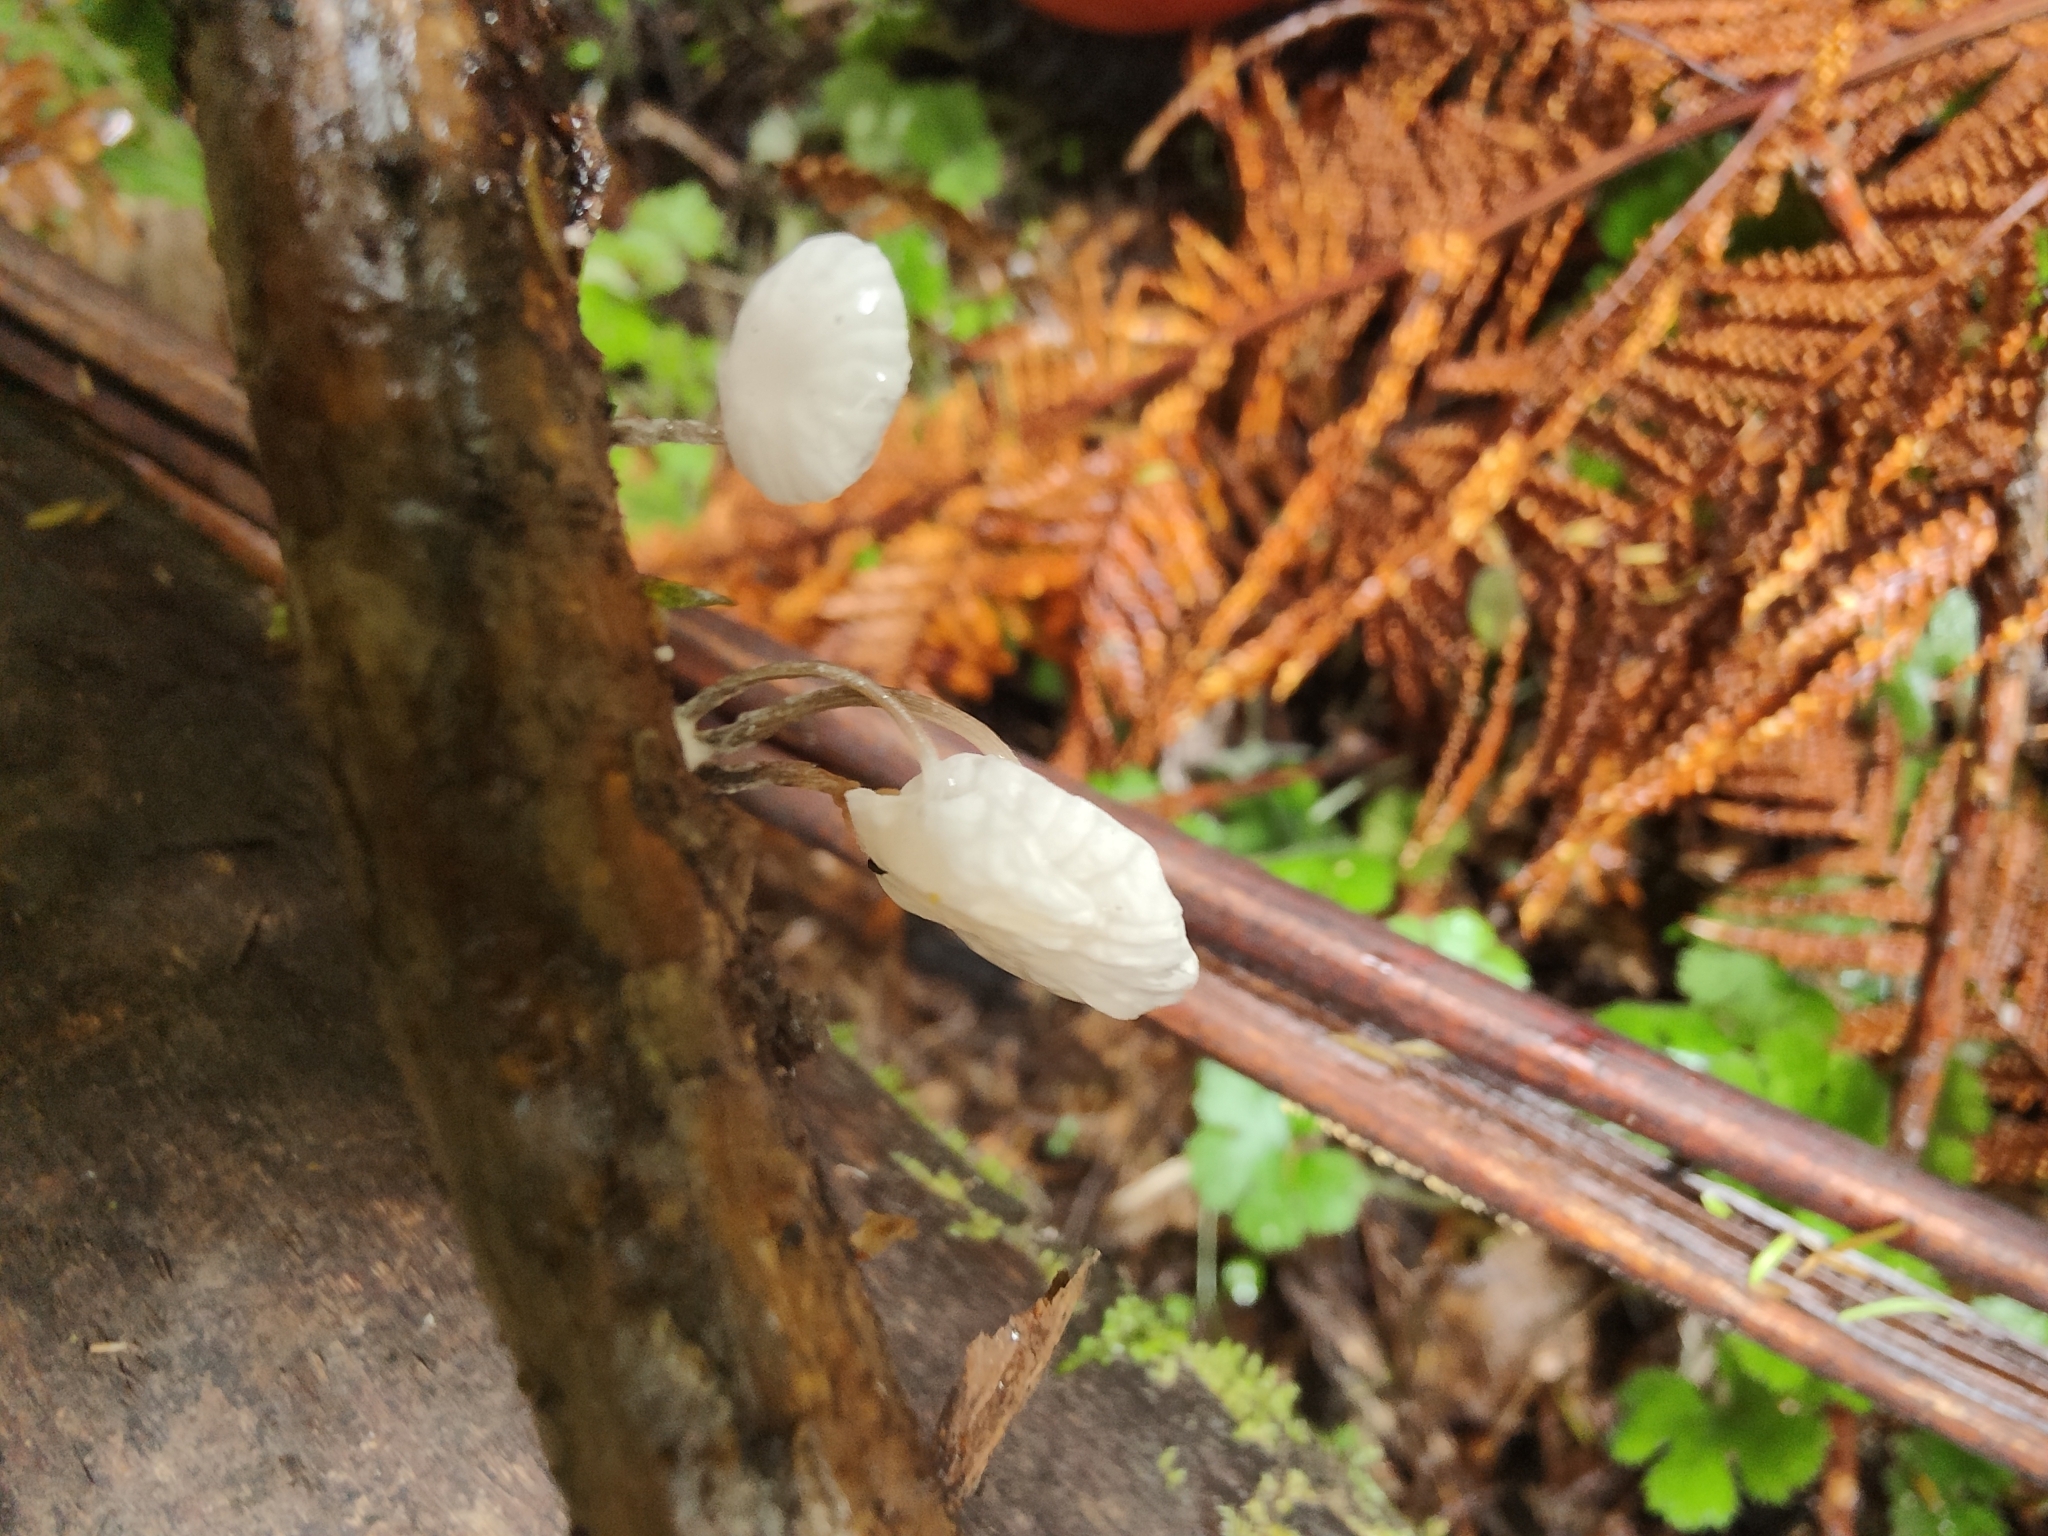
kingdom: Fungi
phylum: Basidiomycota
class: Agaricomycetes
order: Agaricales
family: Porotheleaceae
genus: Porotheleum
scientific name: Porotheleum albodescendens
